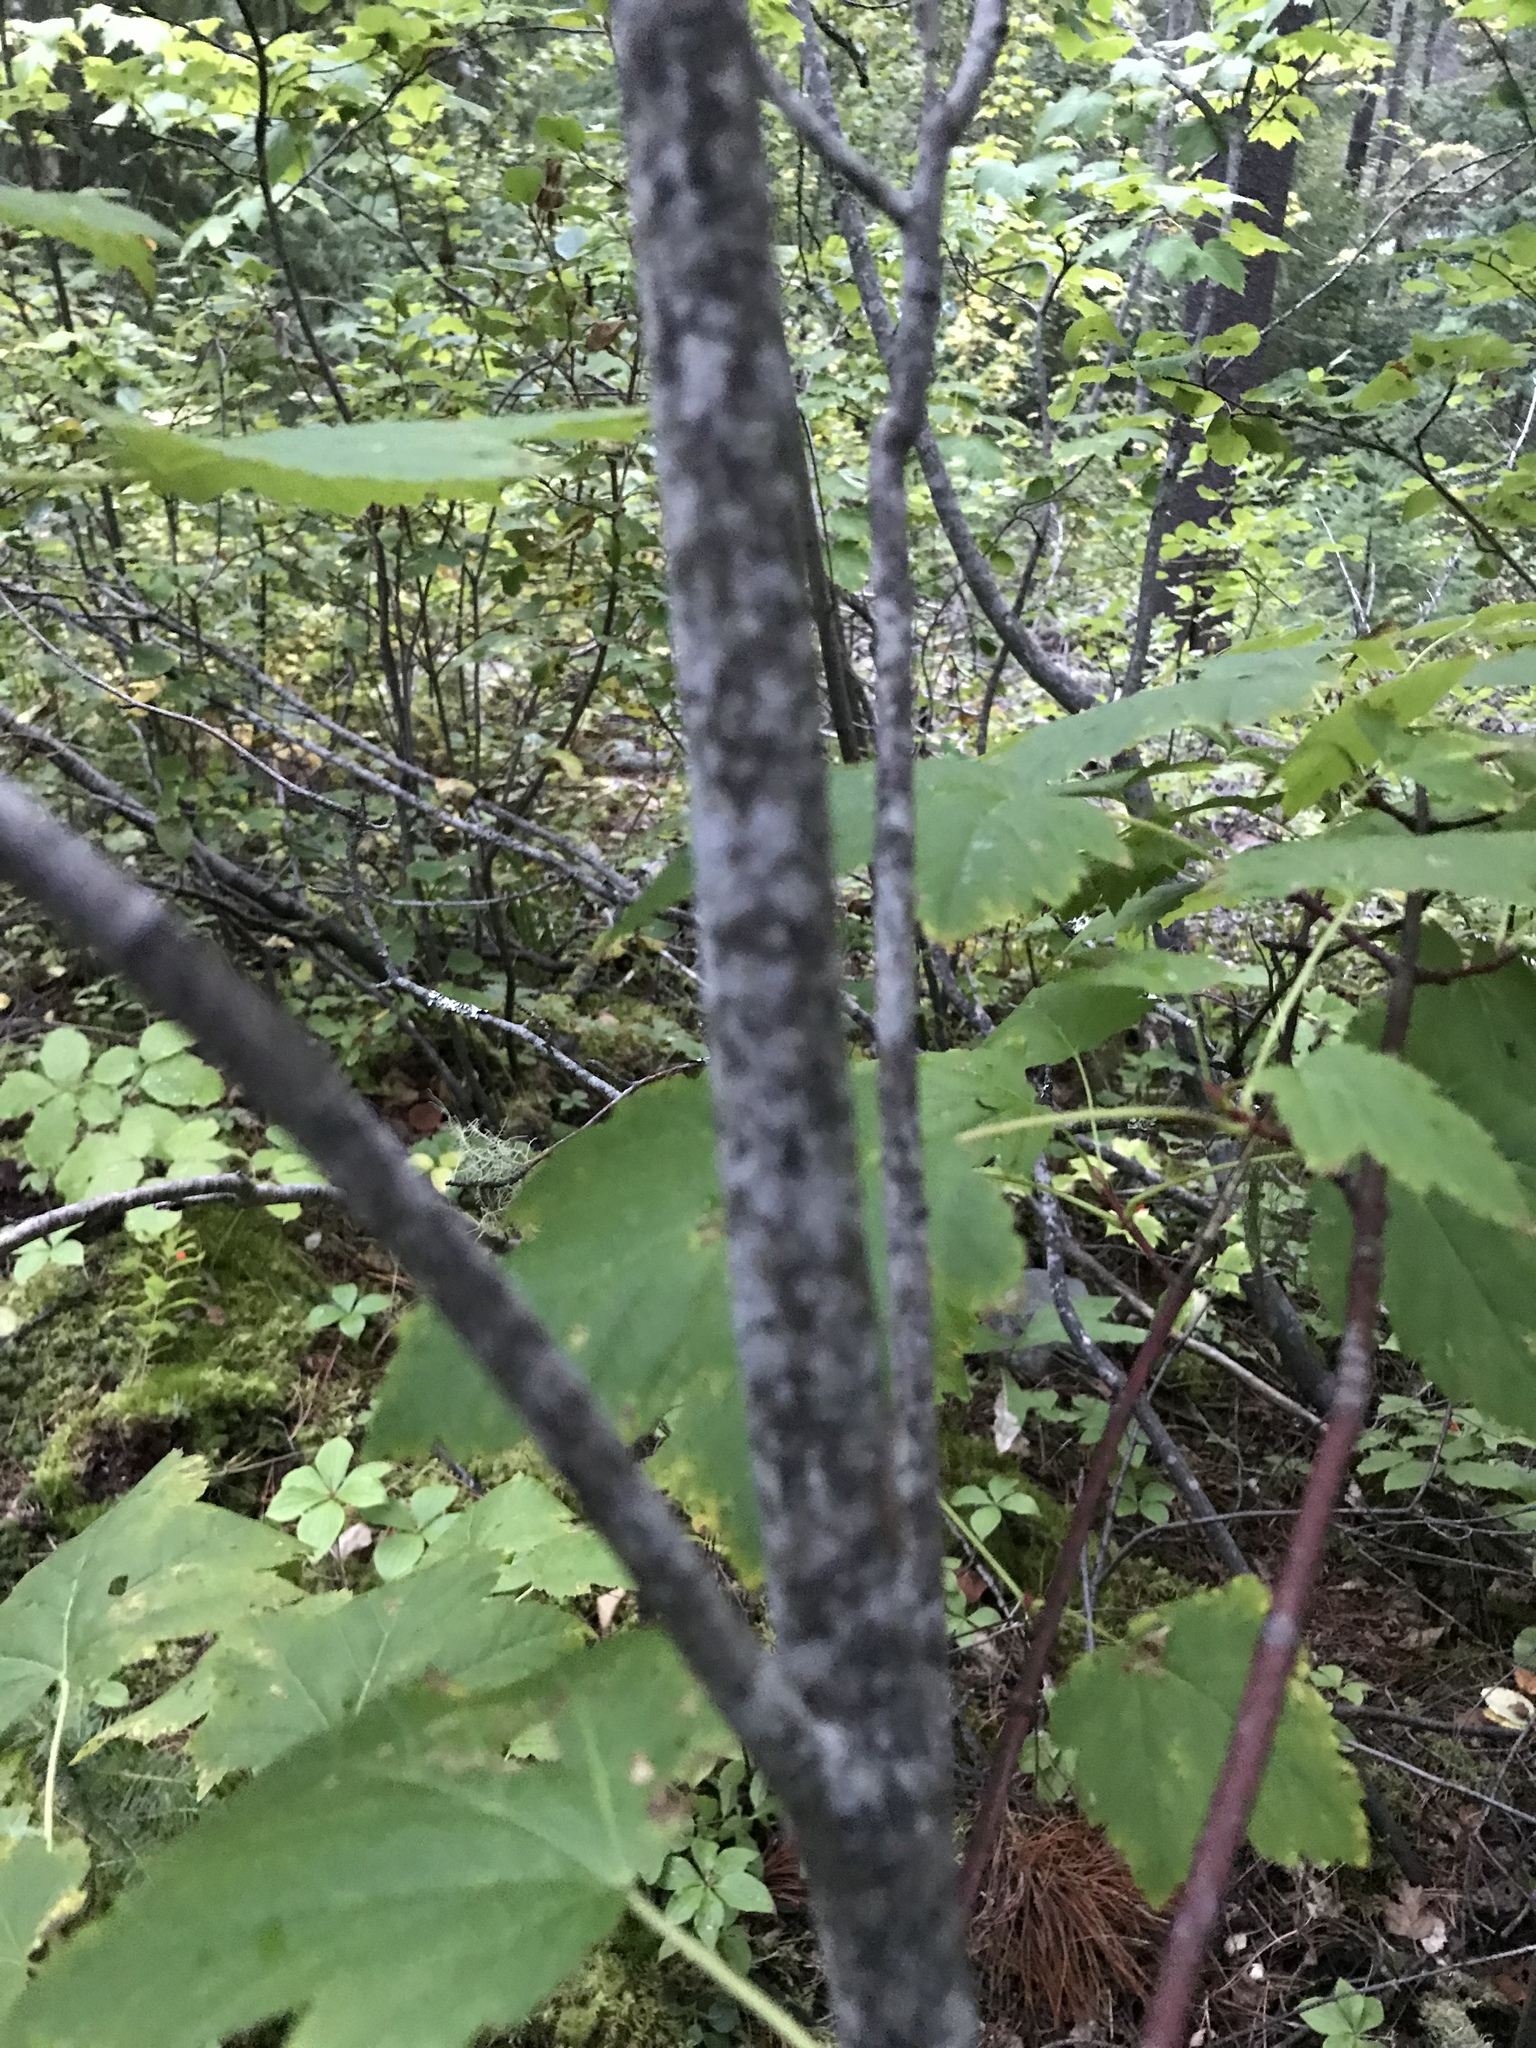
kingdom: Plantae
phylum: Tracheophyta
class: Magnoliopsida
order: Sapindales
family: Sapindaceae
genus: Acer
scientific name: Acer glabrum
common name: Rocky mountain maple
